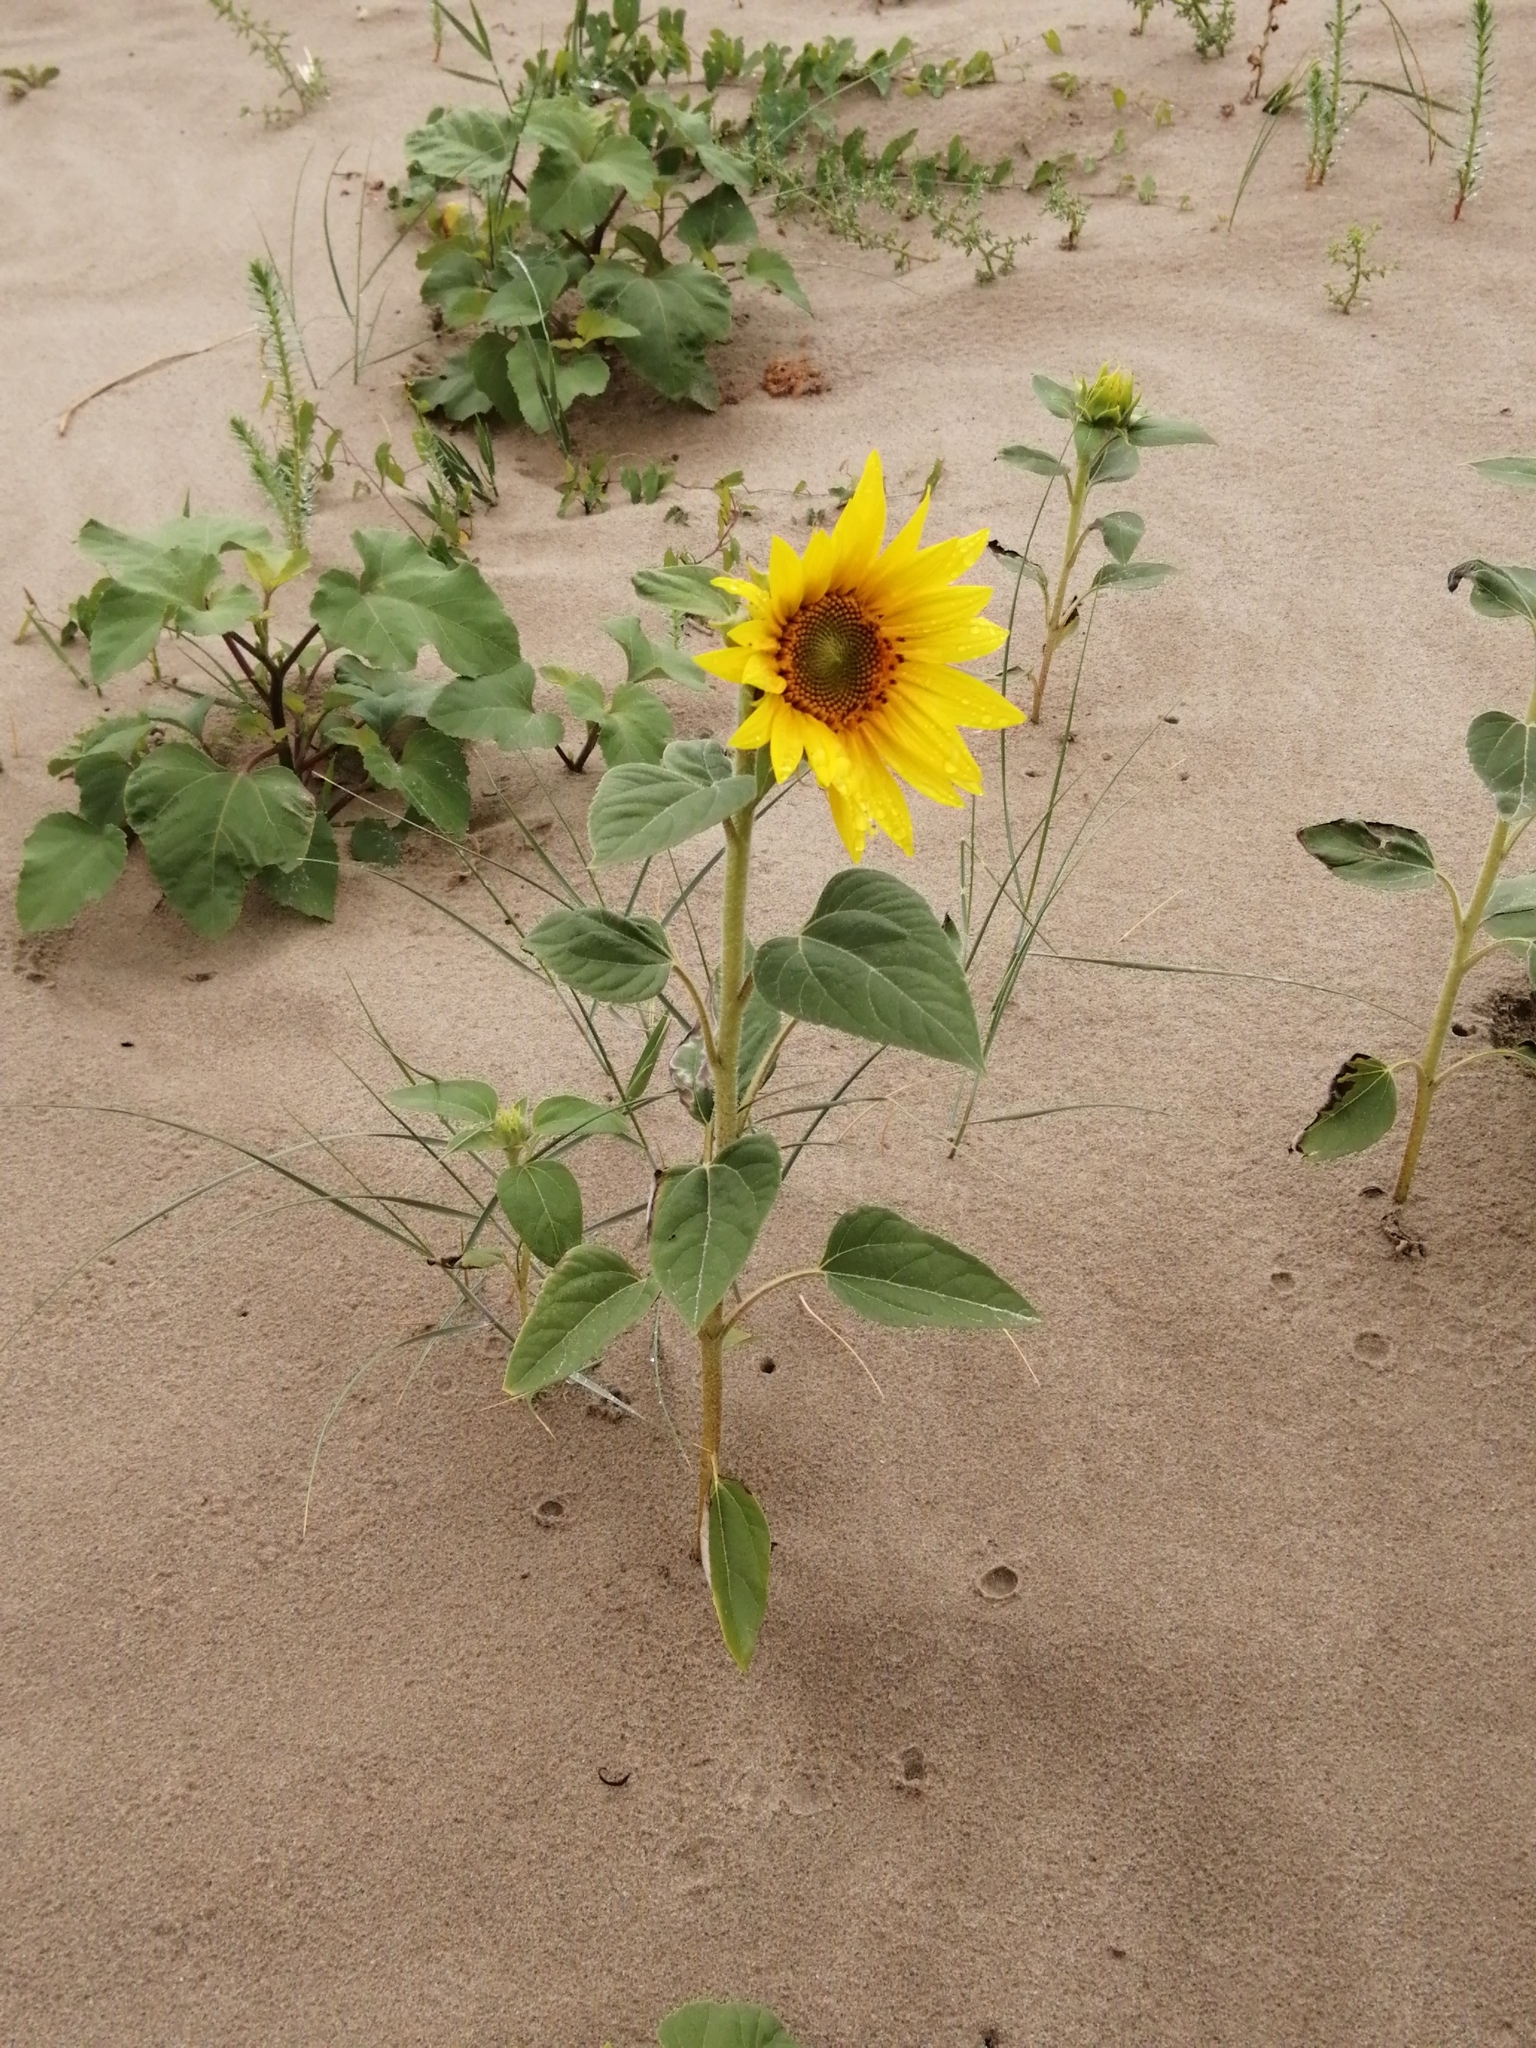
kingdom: Plantae
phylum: Tracheophyta
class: Magnoliopsida
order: Asterales
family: Asteraceae
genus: Helianthus
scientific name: Helianthus annuus
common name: Sunflower
